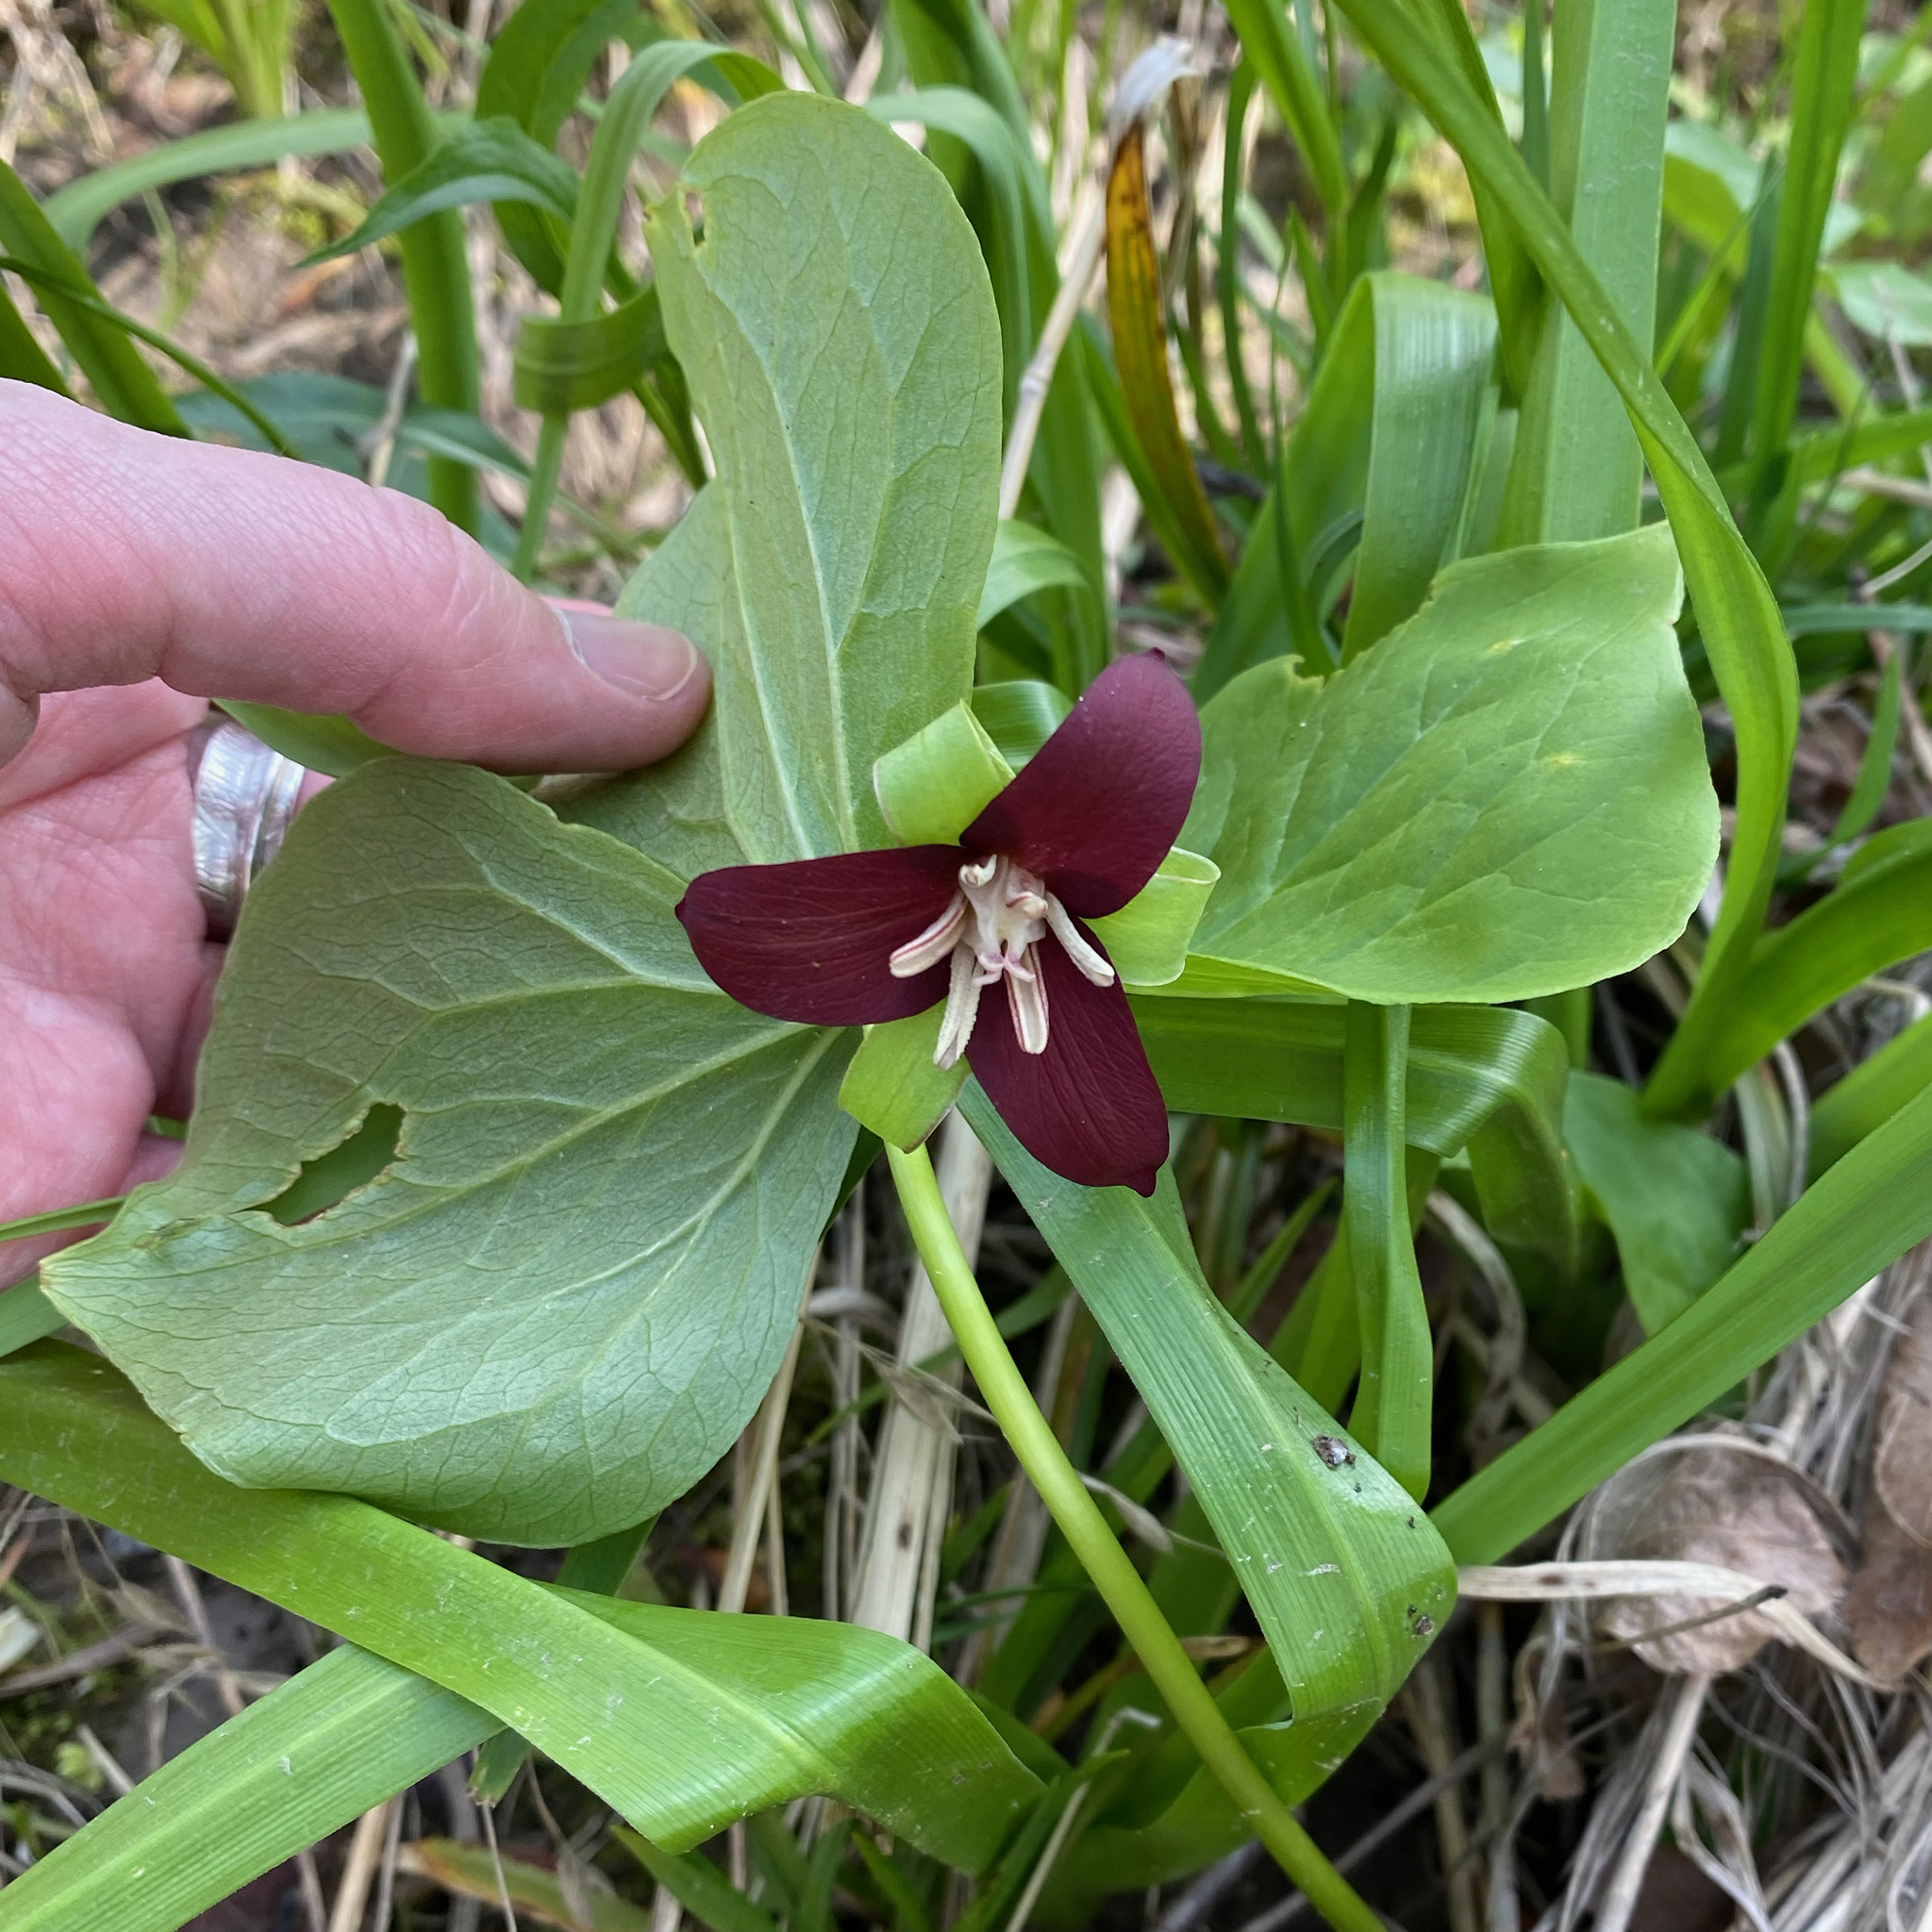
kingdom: Plantae
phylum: Tracheophyta
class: Liliopsida
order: Liliales
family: Melanthiaceae
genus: Trillium
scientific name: Trillium flexipes
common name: Drooping trillium
